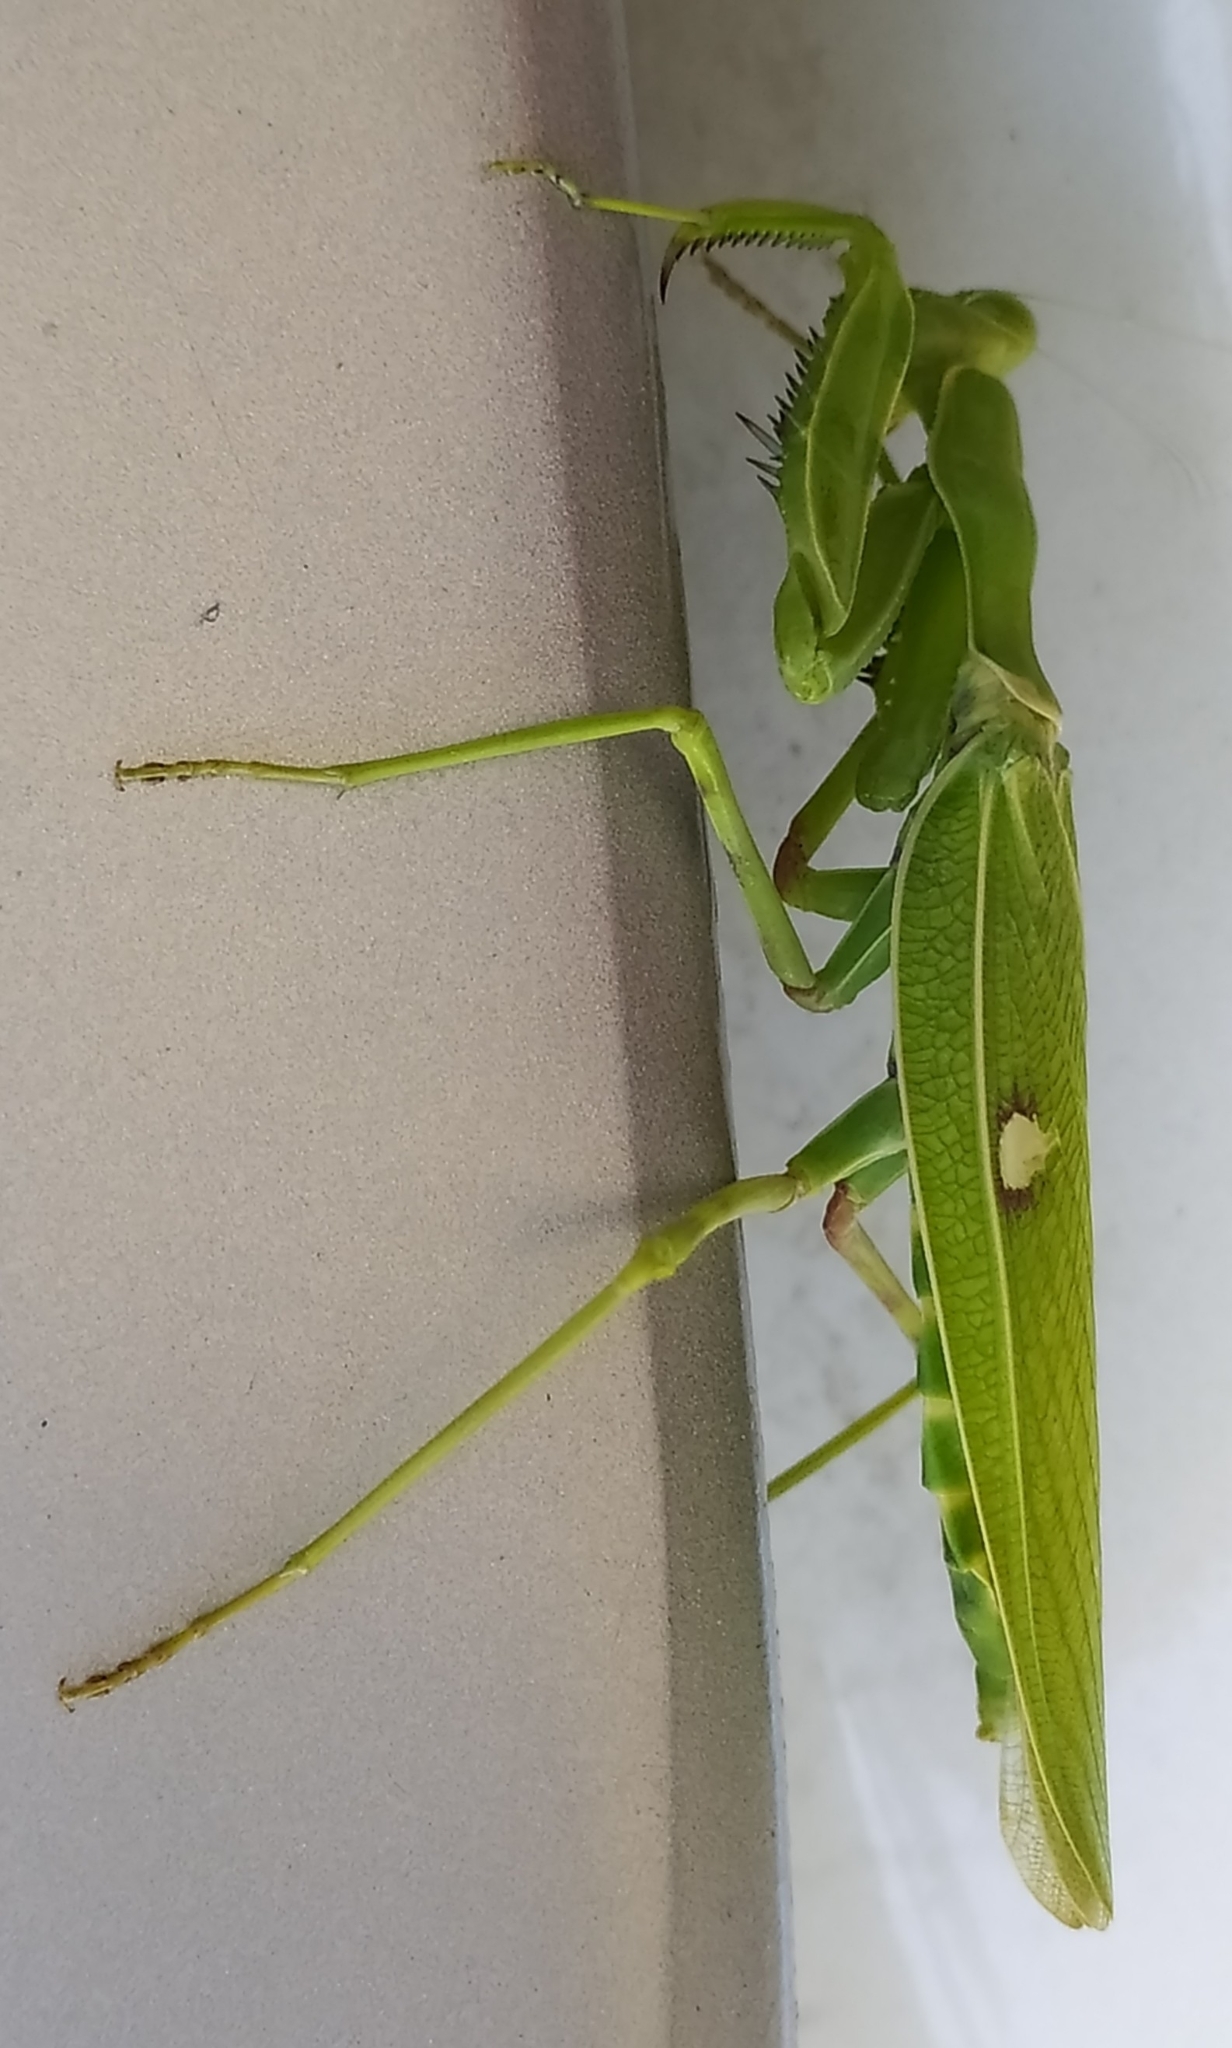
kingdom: Animalia
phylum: Arthropoda
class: Insecta
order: Mantodea
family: Mantidae
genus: Hierodula
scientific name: Hierodula coarctata
